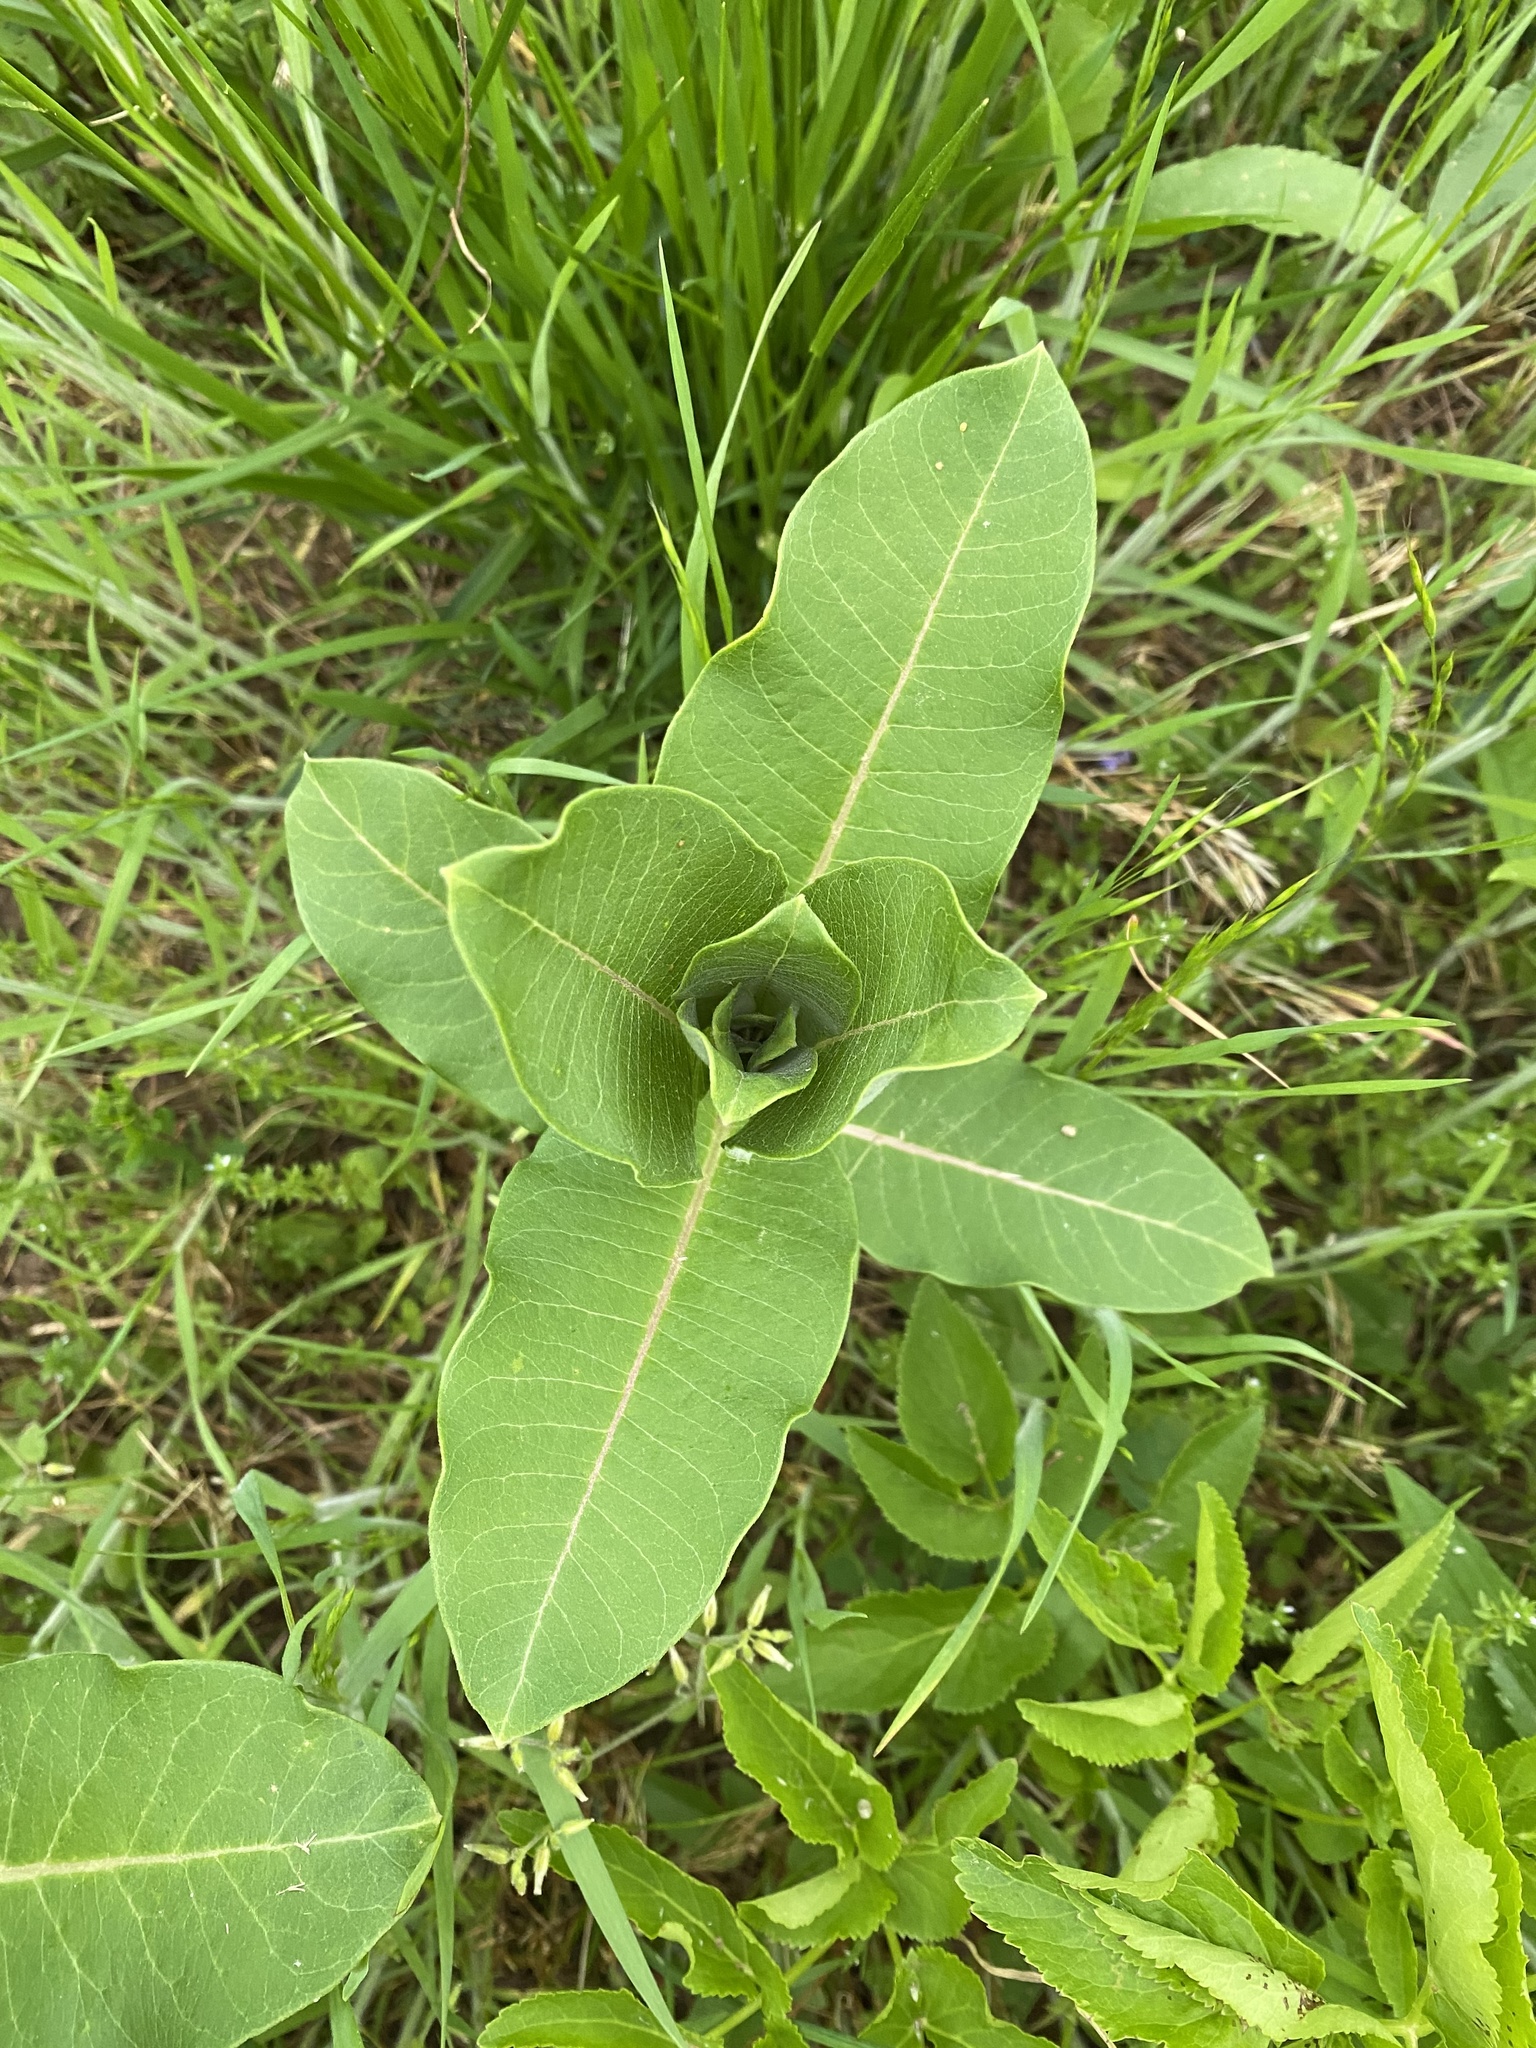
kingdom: Plantae
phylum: Tracheophyta
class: Magnoliopsida
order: Gentianales
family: Apocynaceae
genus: Asclepias
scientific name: Asclepias syriaca
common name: Common milkweed
